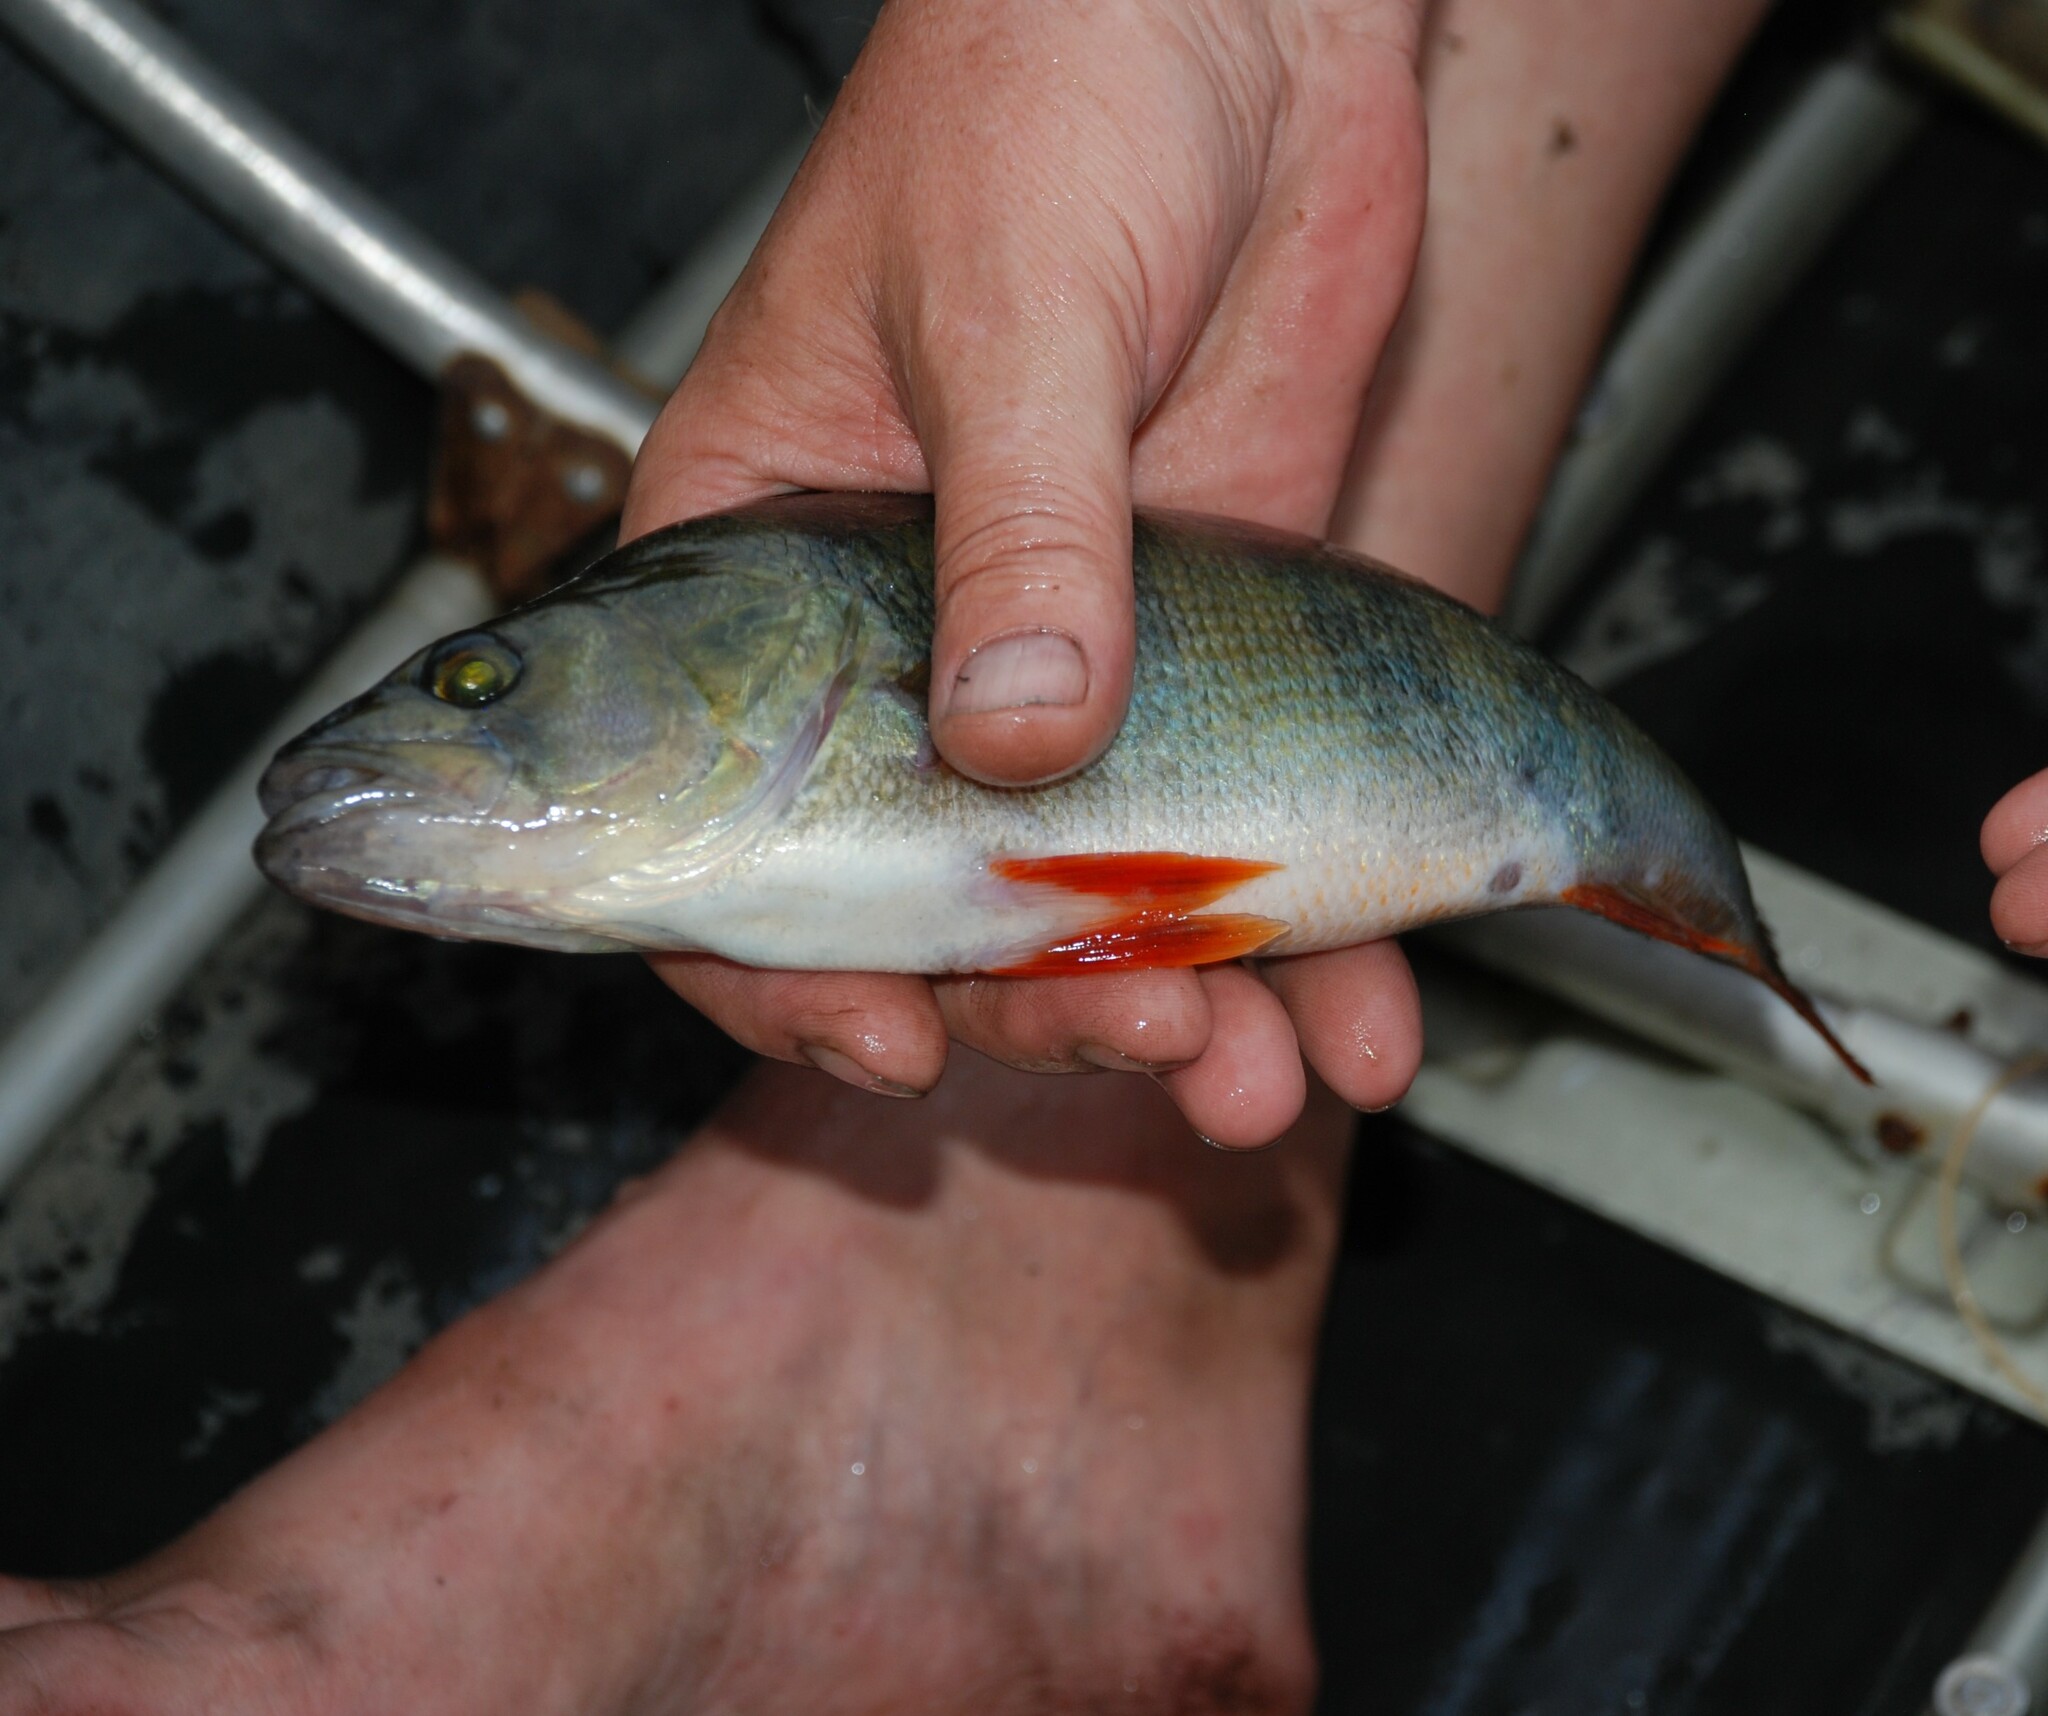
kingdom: Animalia
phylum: Chordata
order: Perciformes
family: Percidae
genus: Perca
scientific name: Perca fluviatilis
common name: Perch
